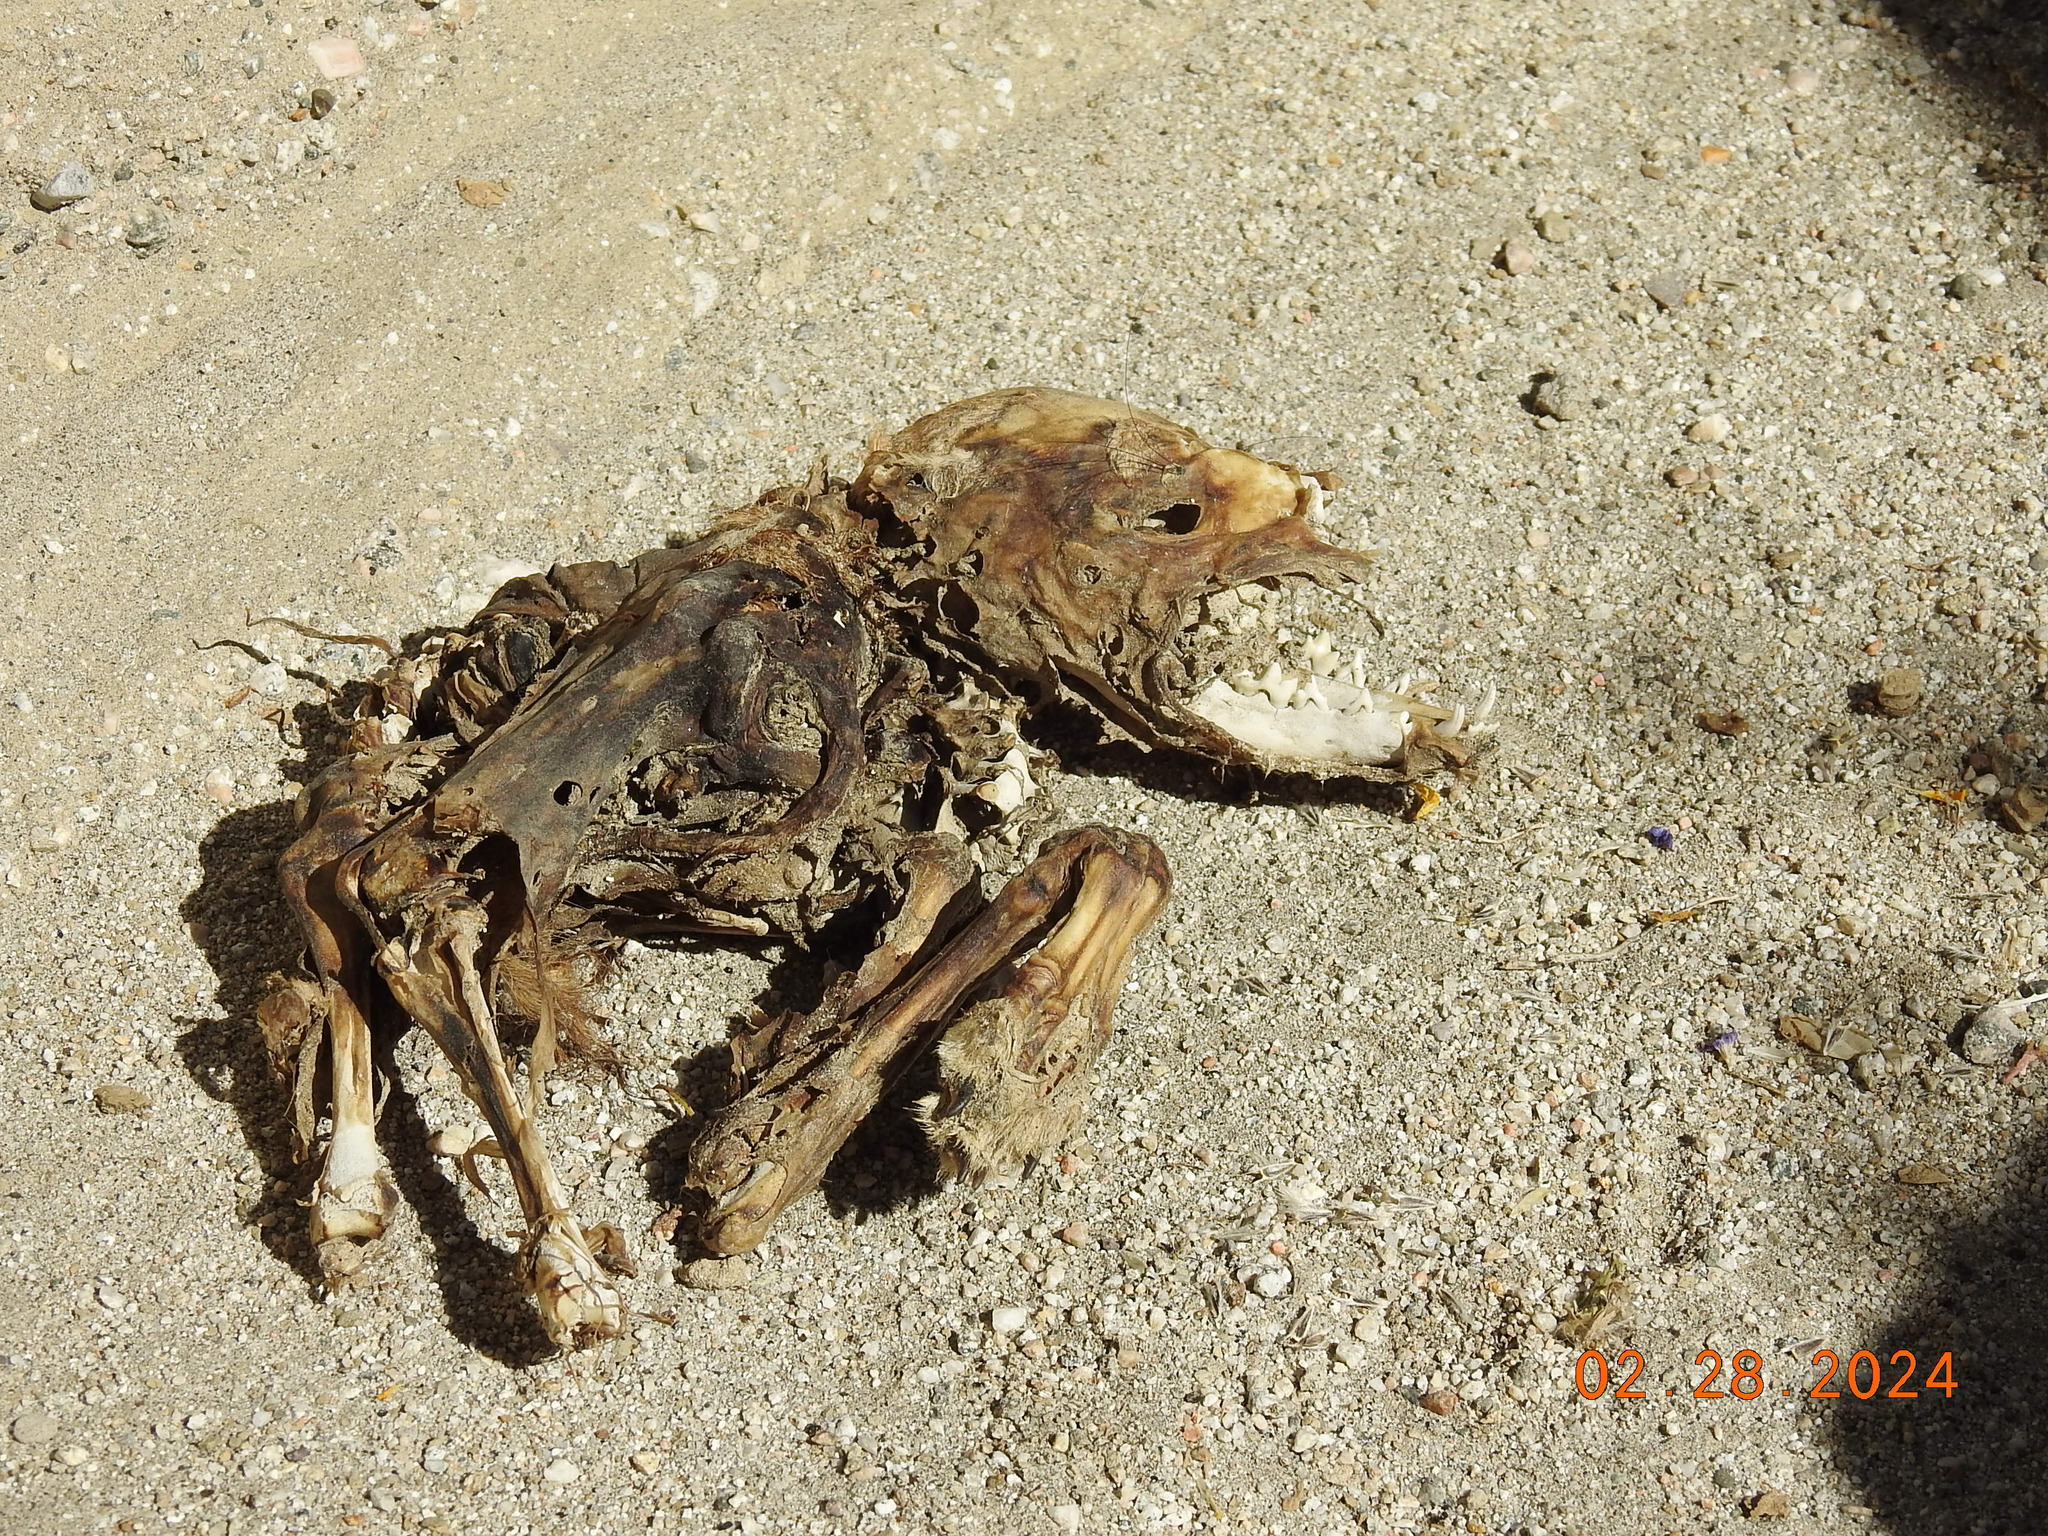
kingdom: Animalia
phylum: Chordata
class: Mammalia
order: Carnivora
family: Canidae
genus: Canis
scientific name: Canis latrans
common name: Coyote
